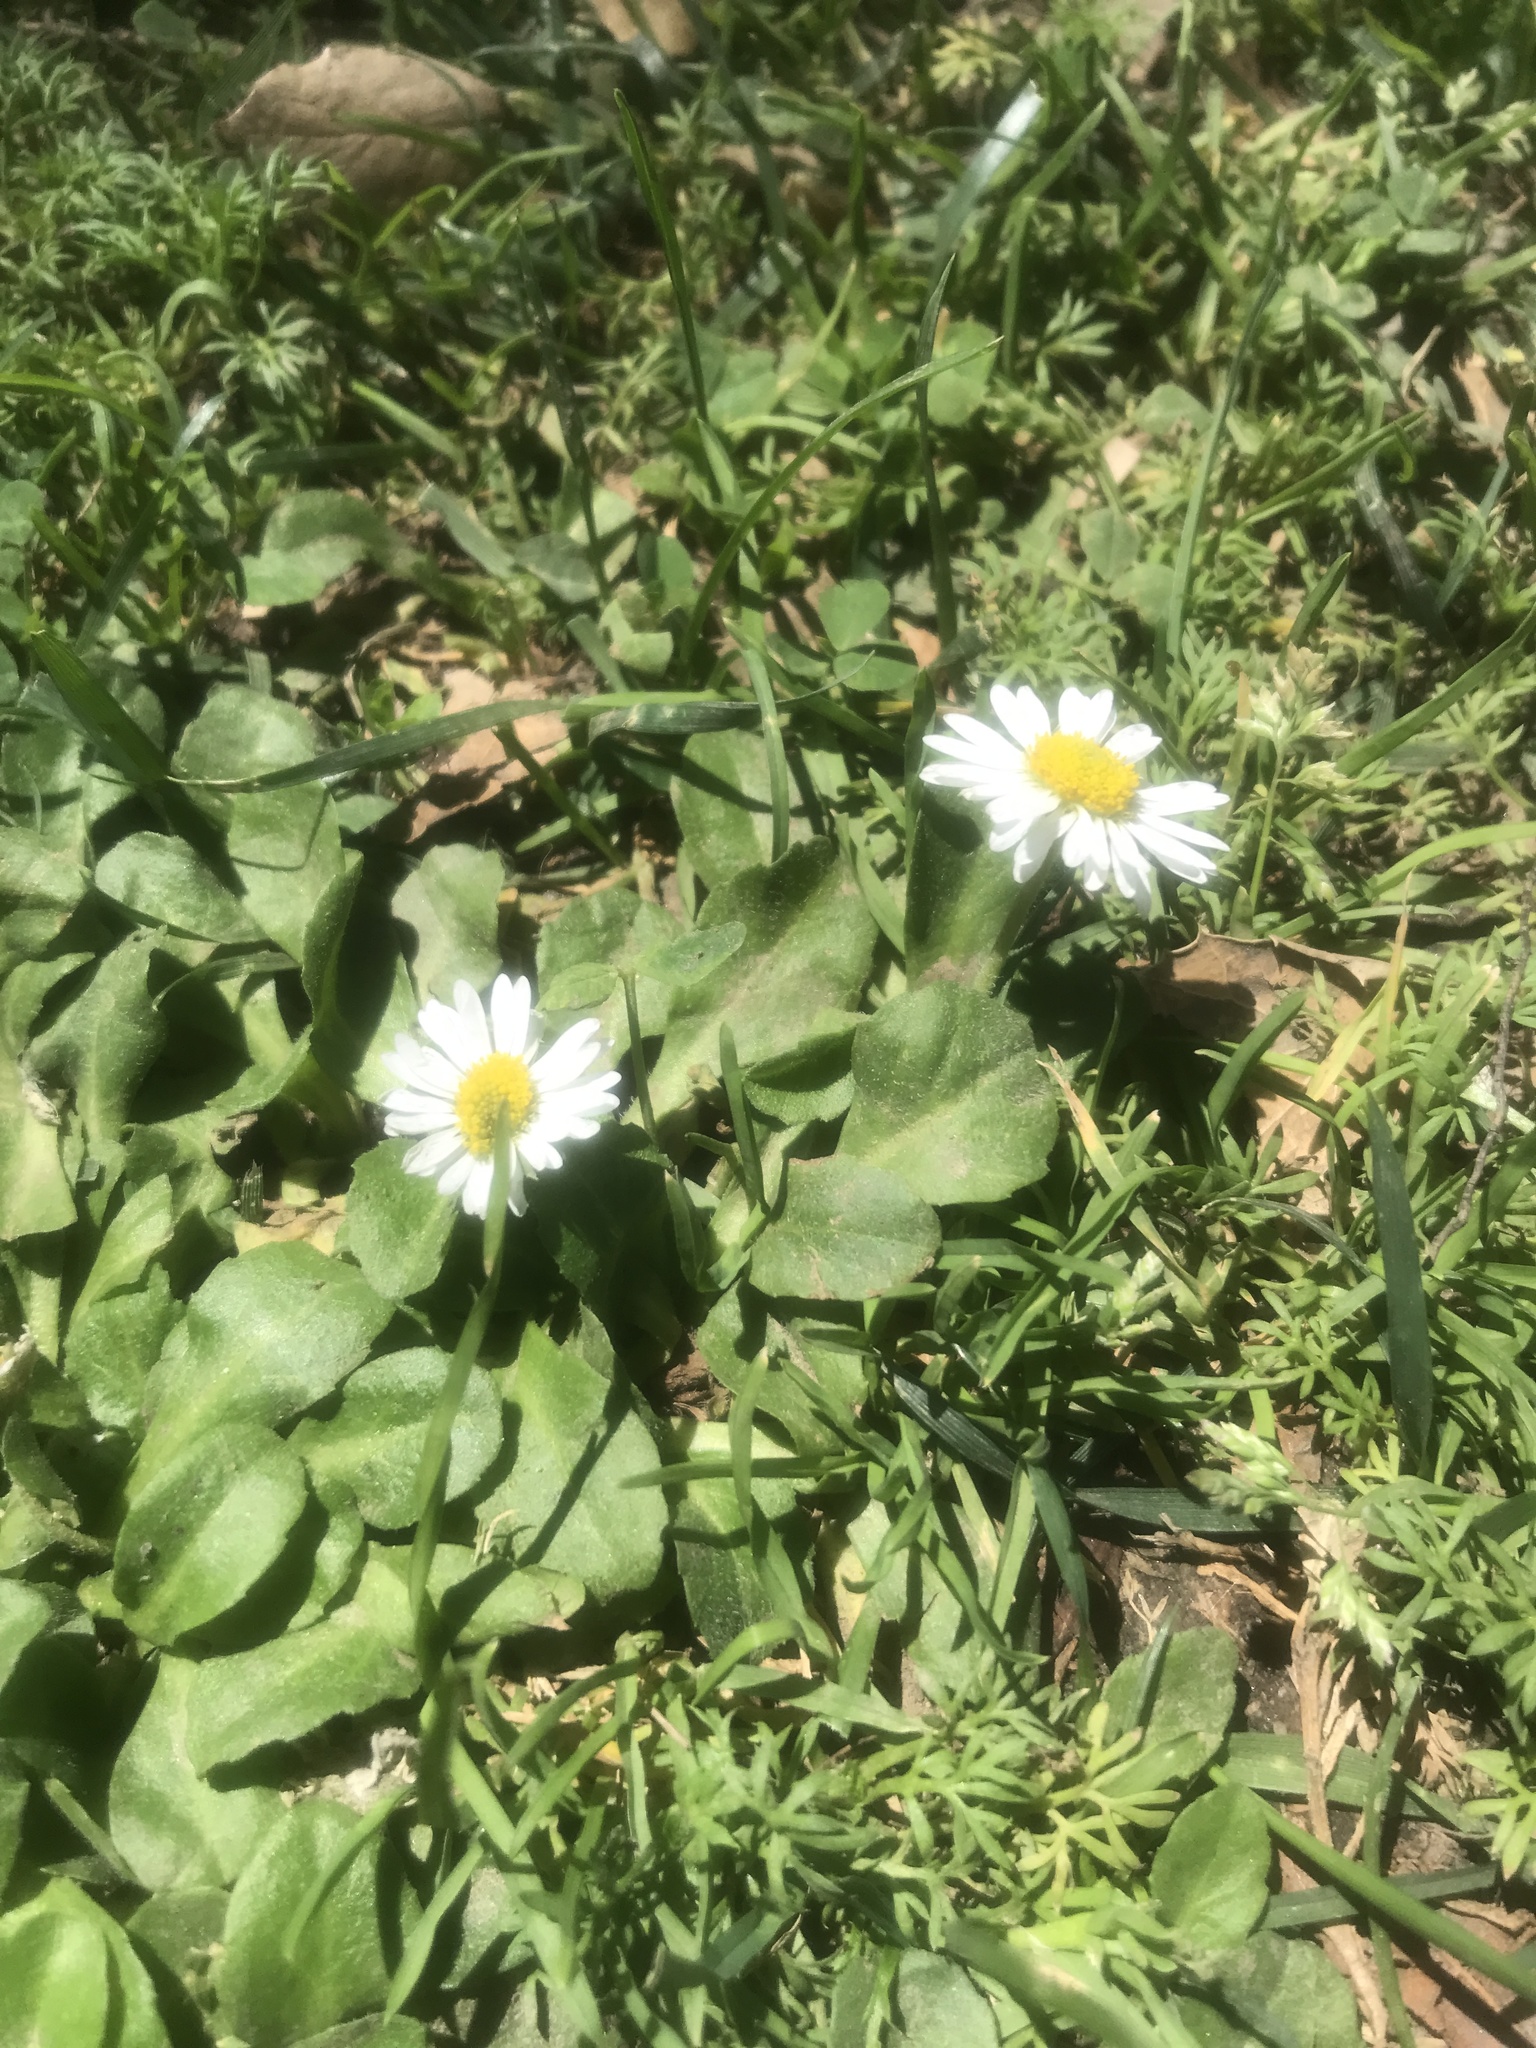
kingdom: Plantae
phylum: Tracheophyta
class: Magnoliopsida
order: Asterales
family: Asteraceae
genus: Bellis
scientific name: Bellis perennis
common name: Lawndaisy
